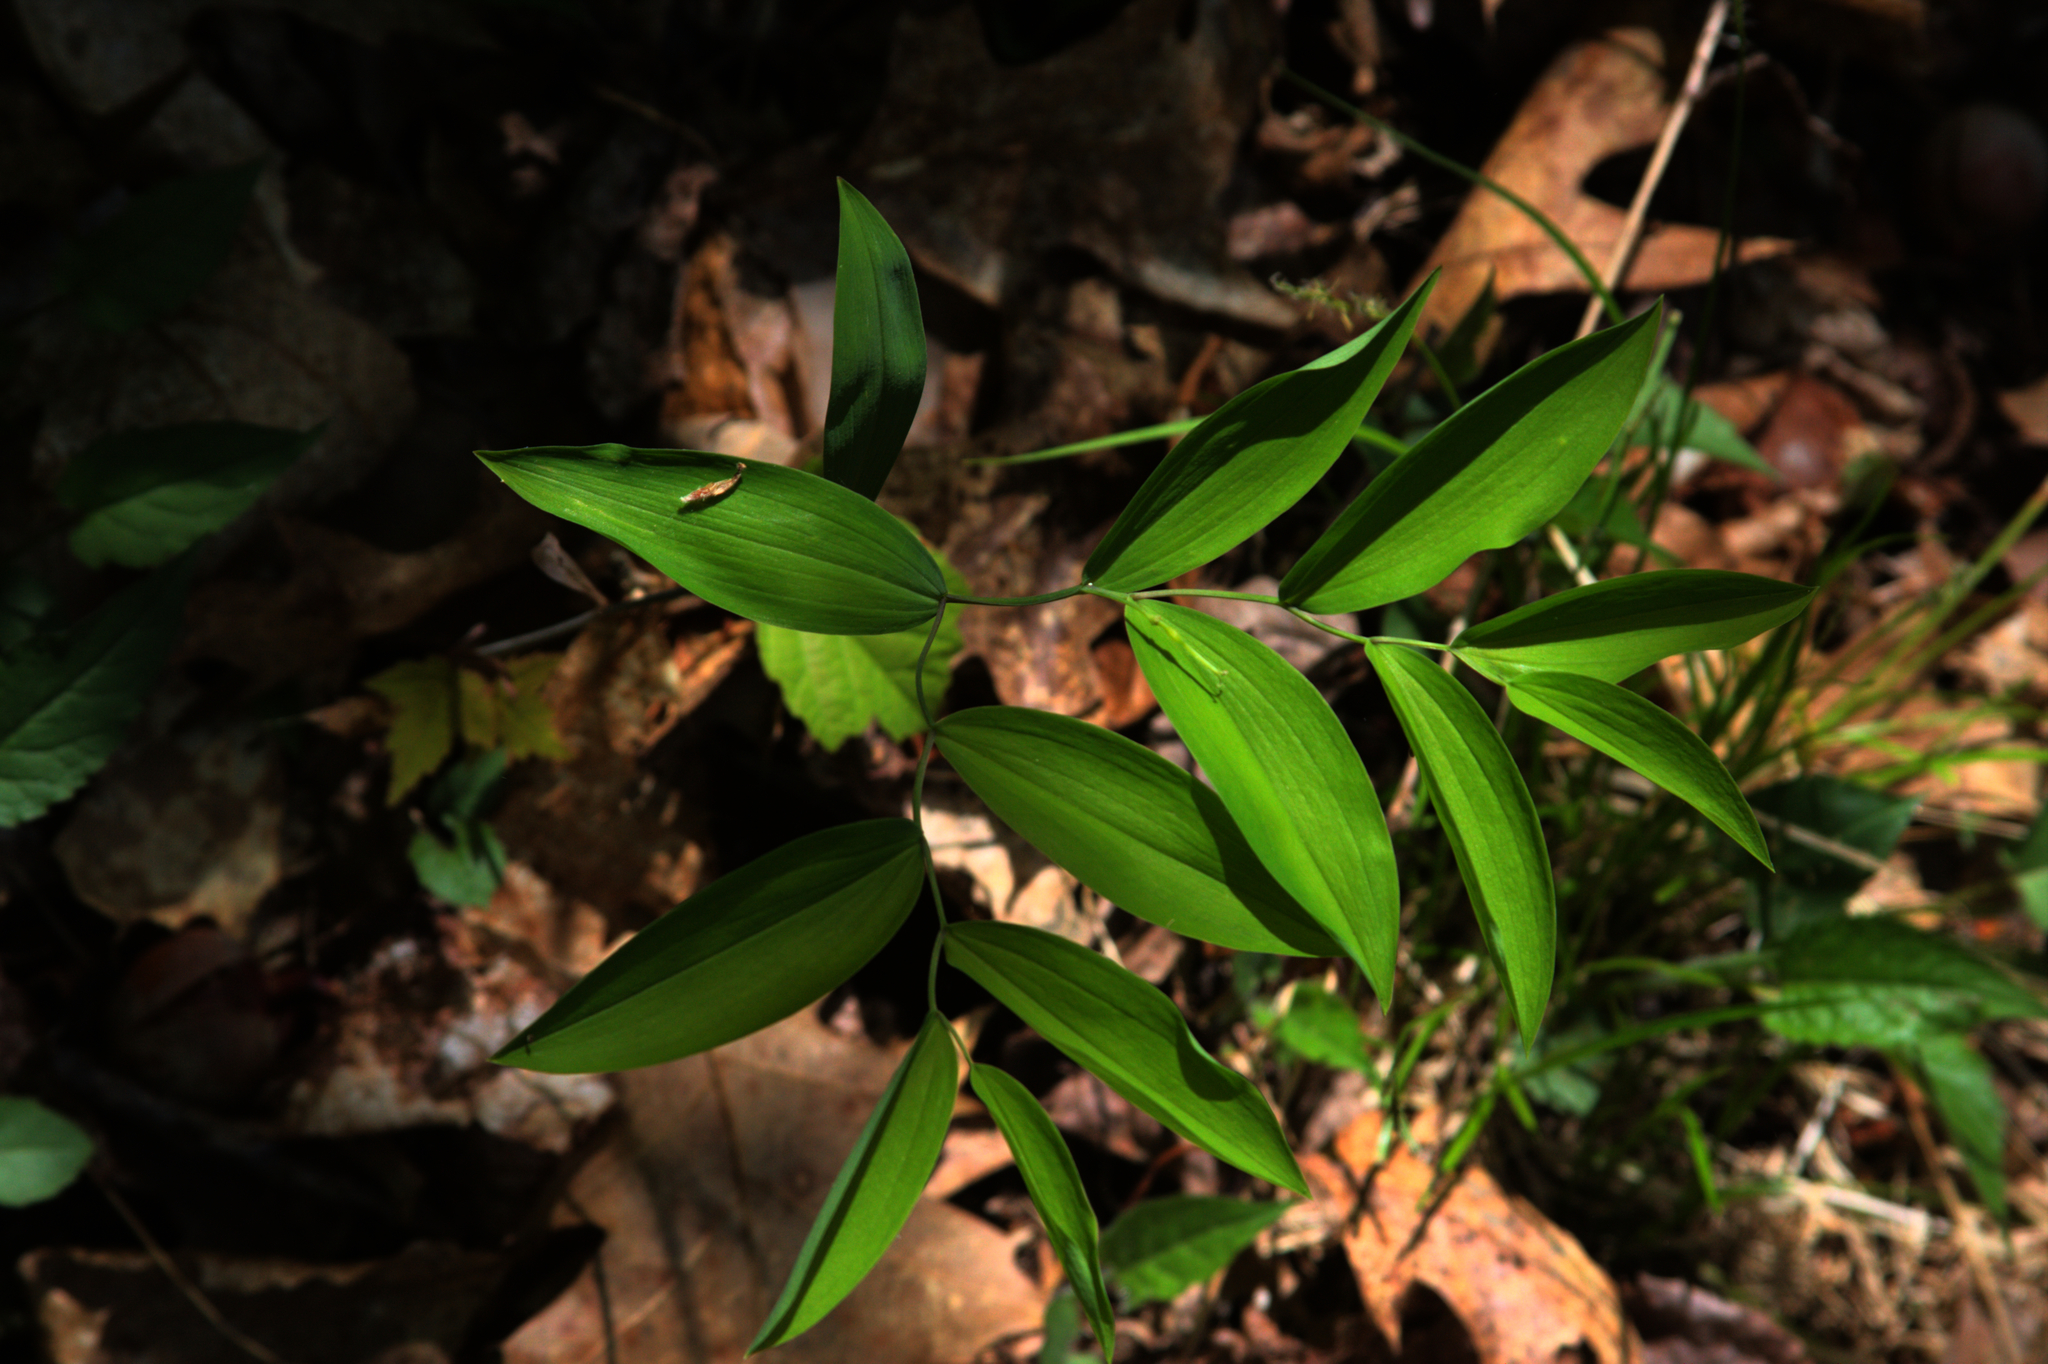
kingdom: Plantae
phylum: Tracheophyta
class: Liliopsida
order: Liliales
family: Colchicaceae
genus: Uvularia
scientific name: Uvularia sessilifolia
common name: Straw-lily
